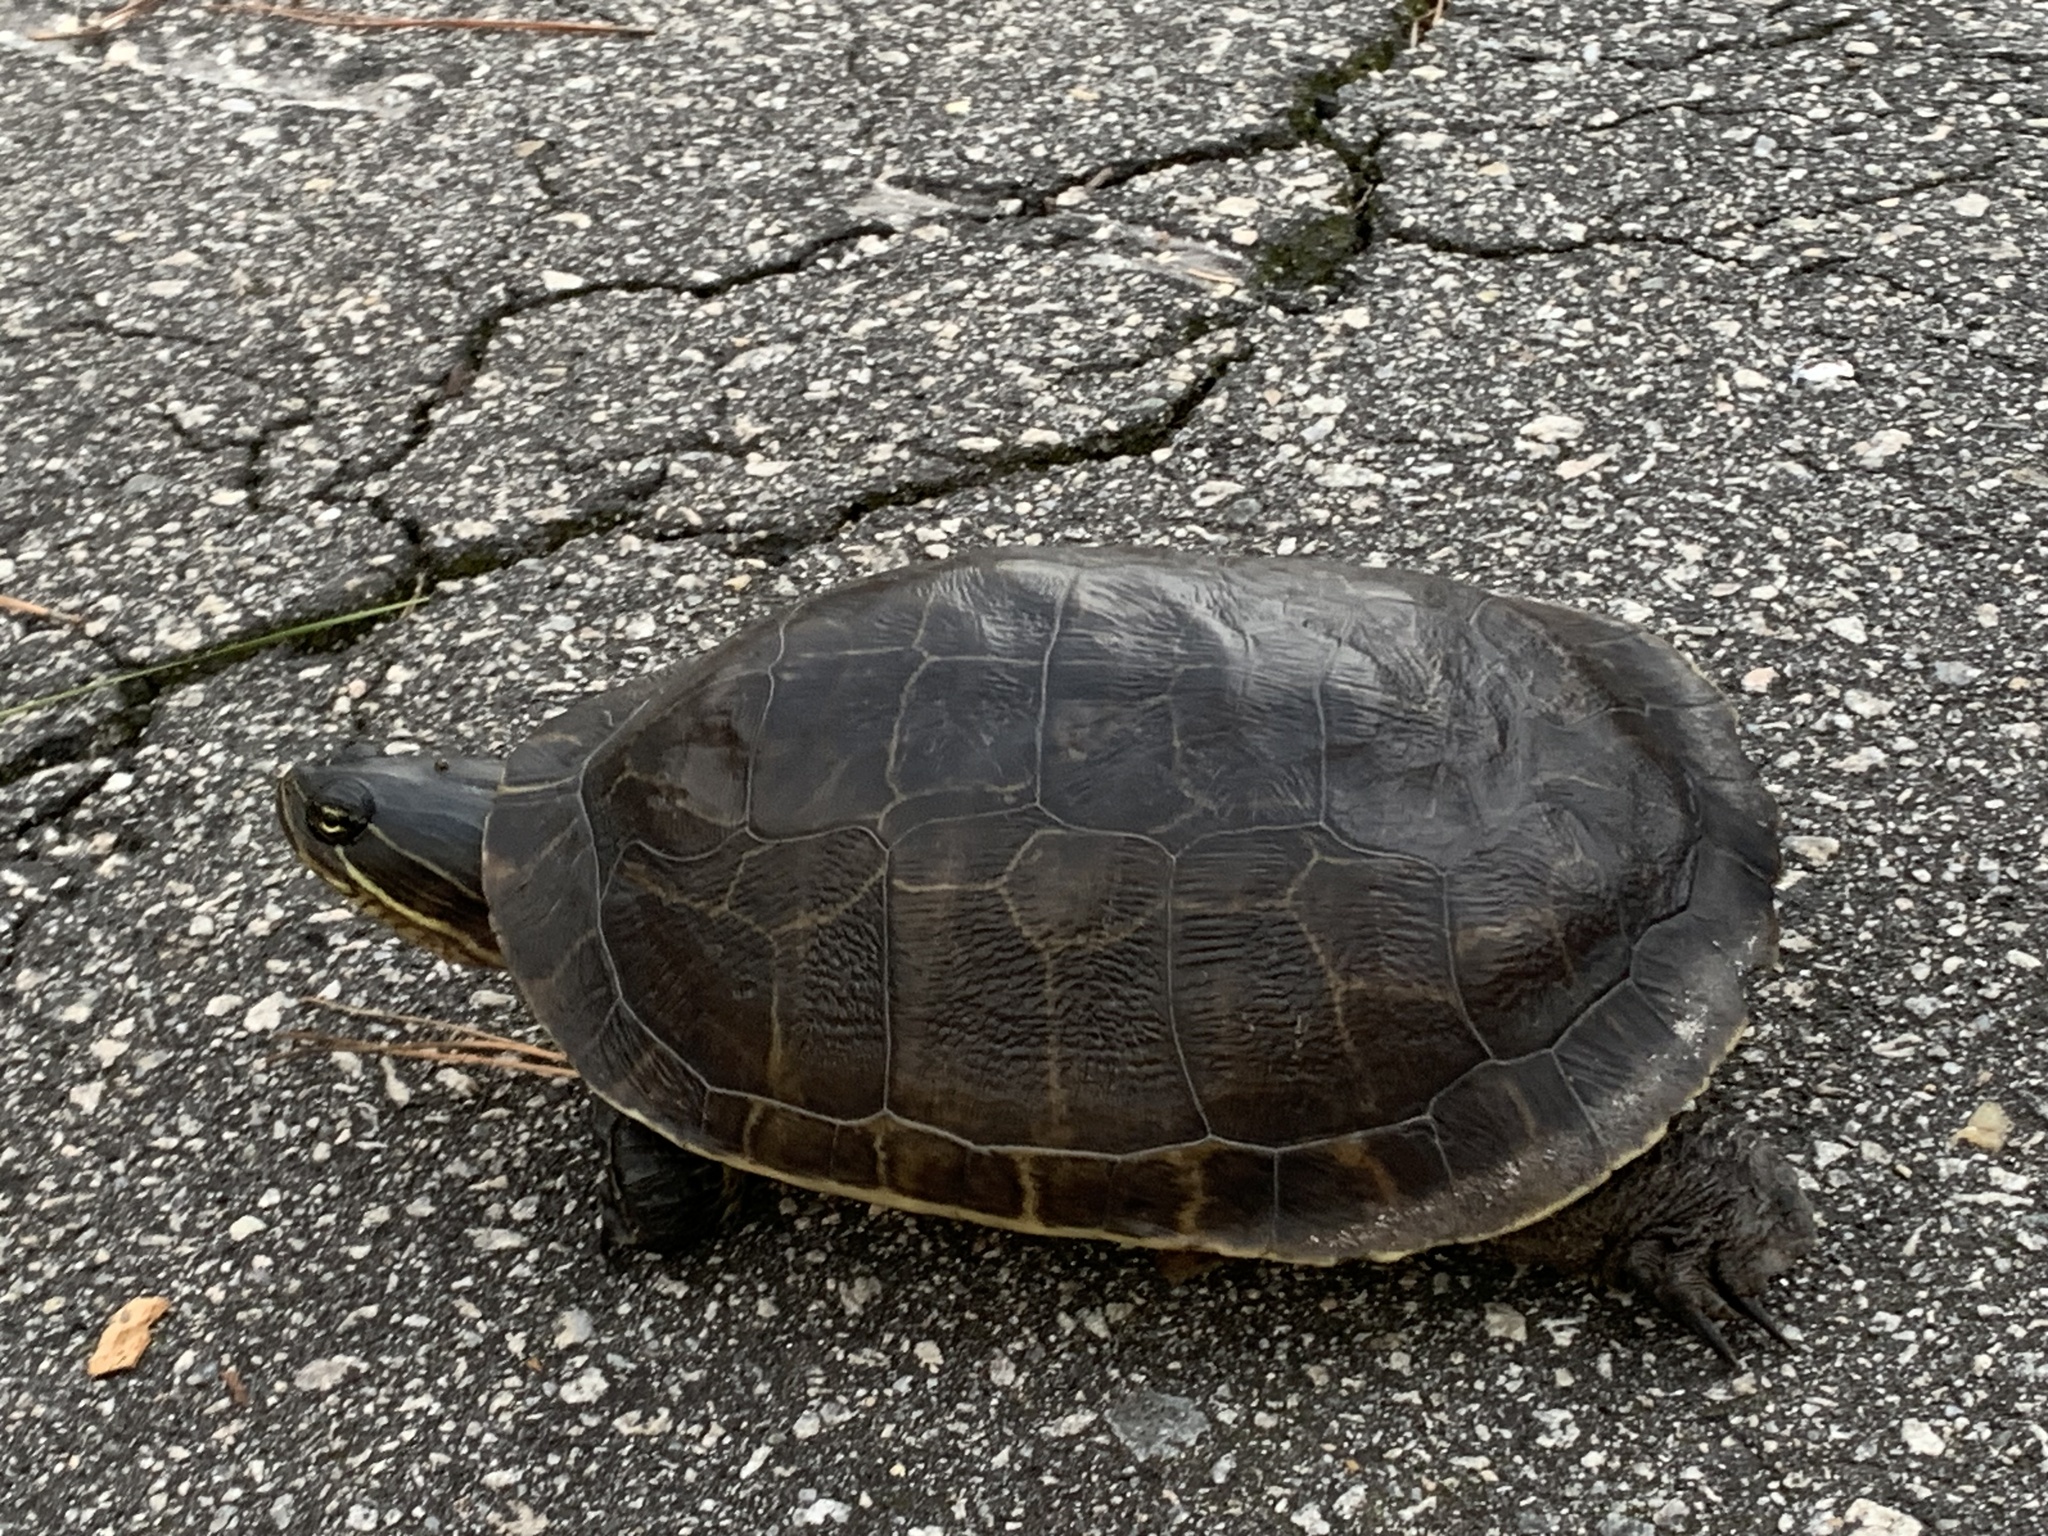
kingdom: Animalia
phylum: Chordata
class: Testudines
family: Emydidae
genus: Deirochelys
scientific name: Deirochelys reticularia
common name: Chicken turtle
